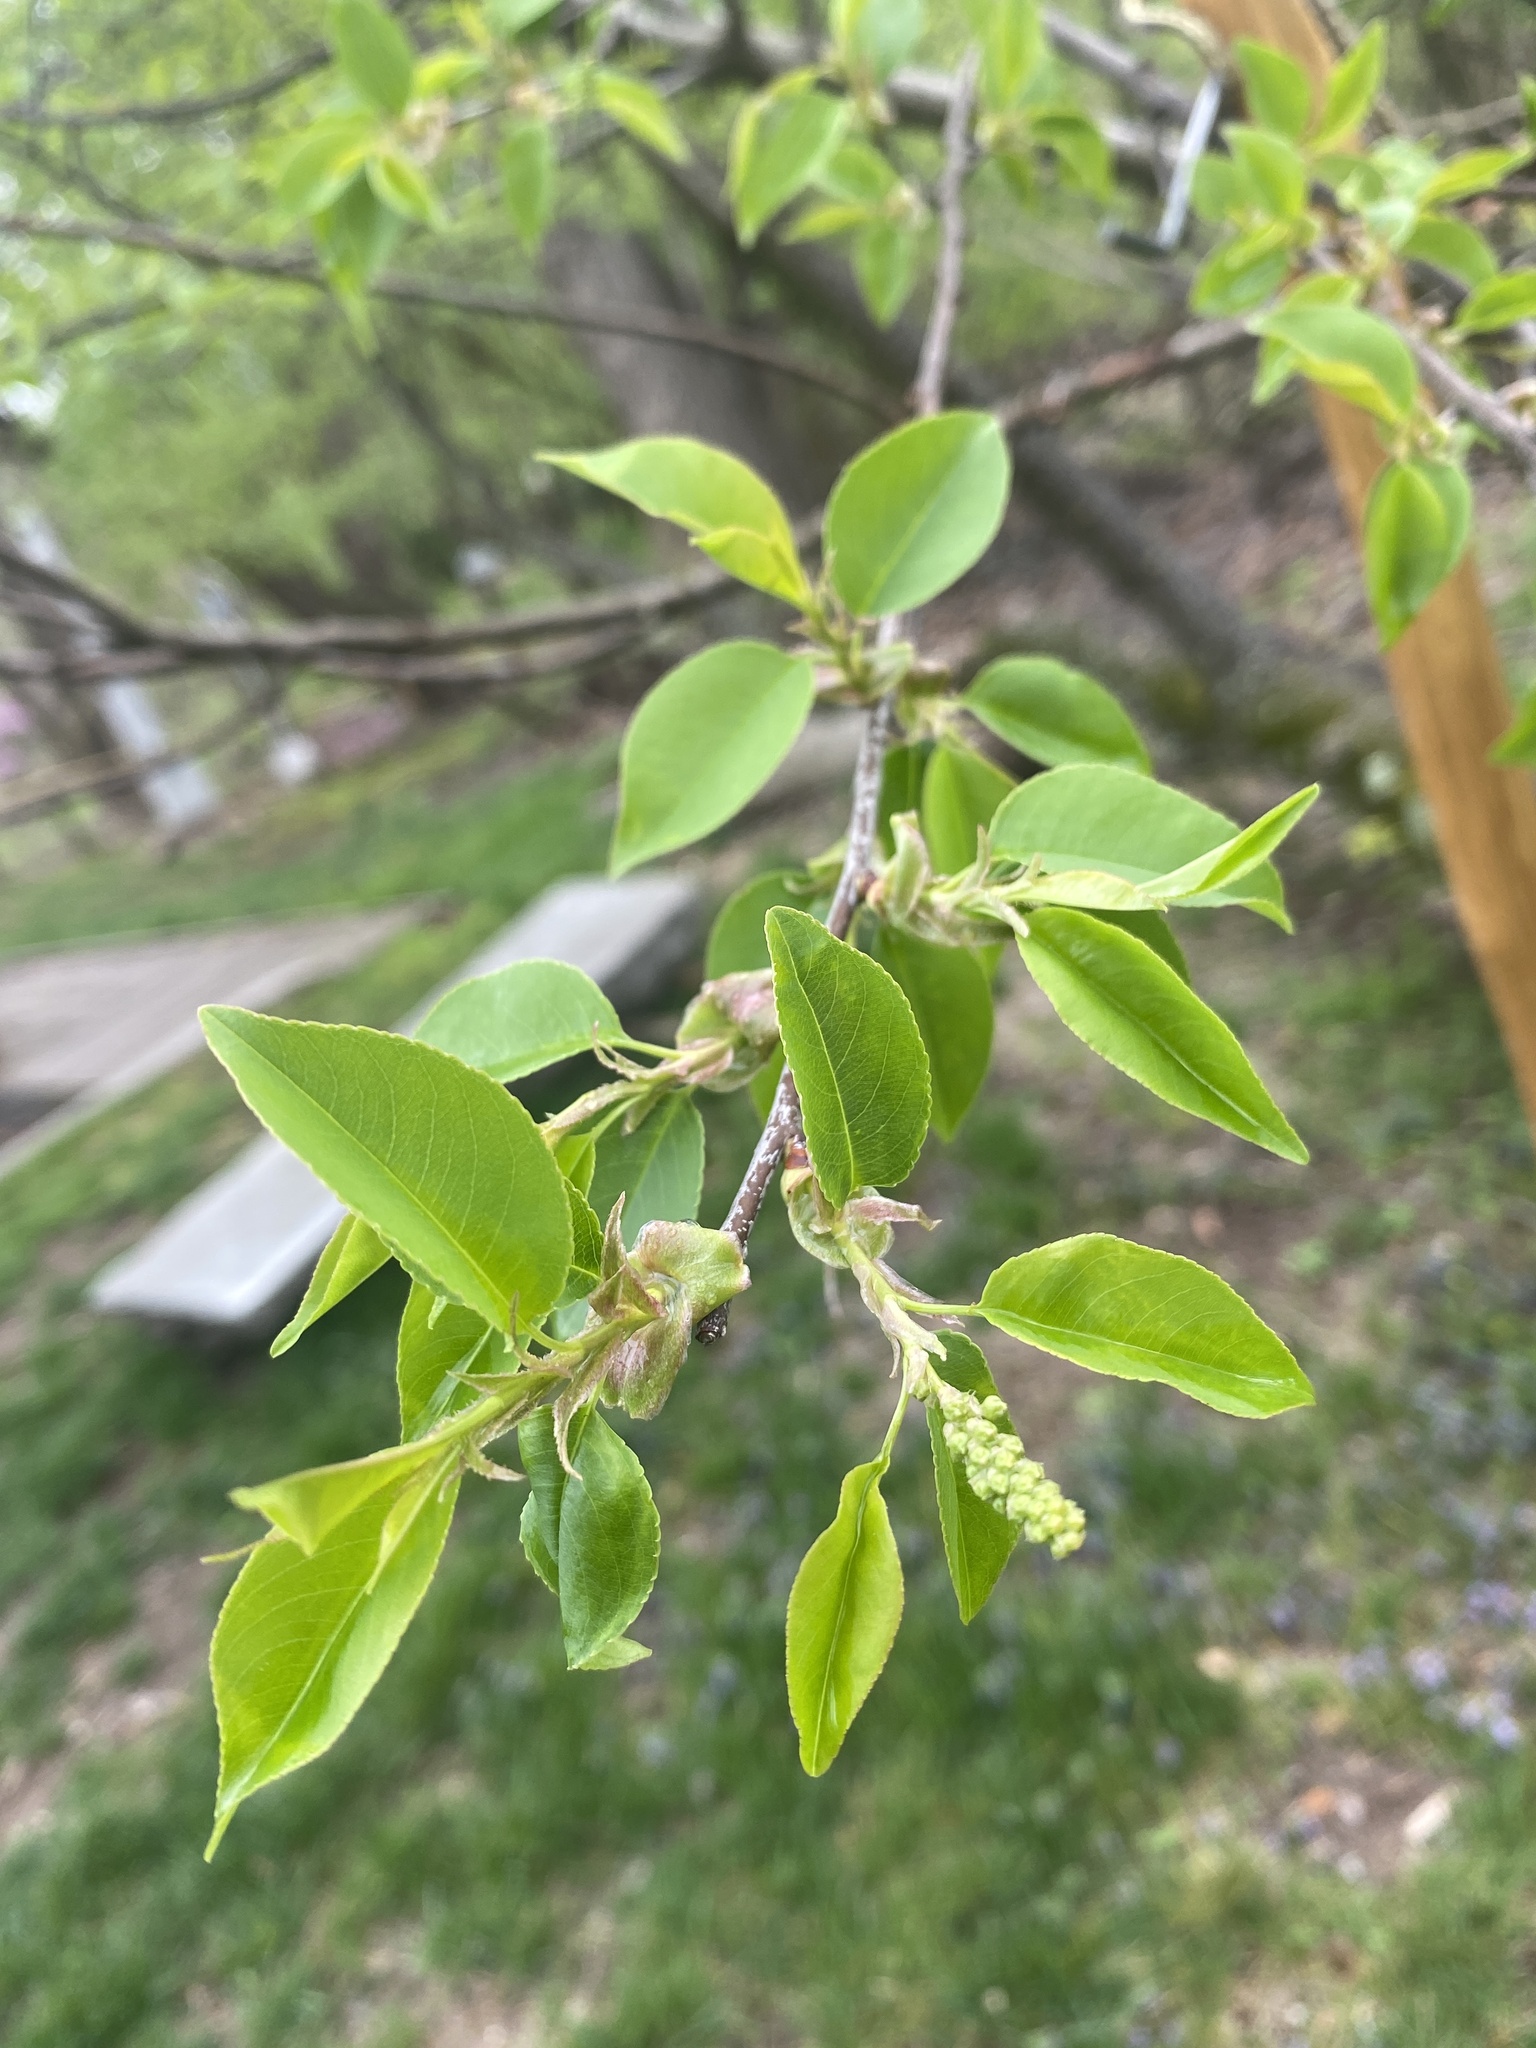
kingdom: Plantae
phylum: Tracheophyta
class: Magnoliopsida
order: Rosales
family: Rosaceae
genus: Prunus
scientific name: Prunus serotina
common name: Black cherry
